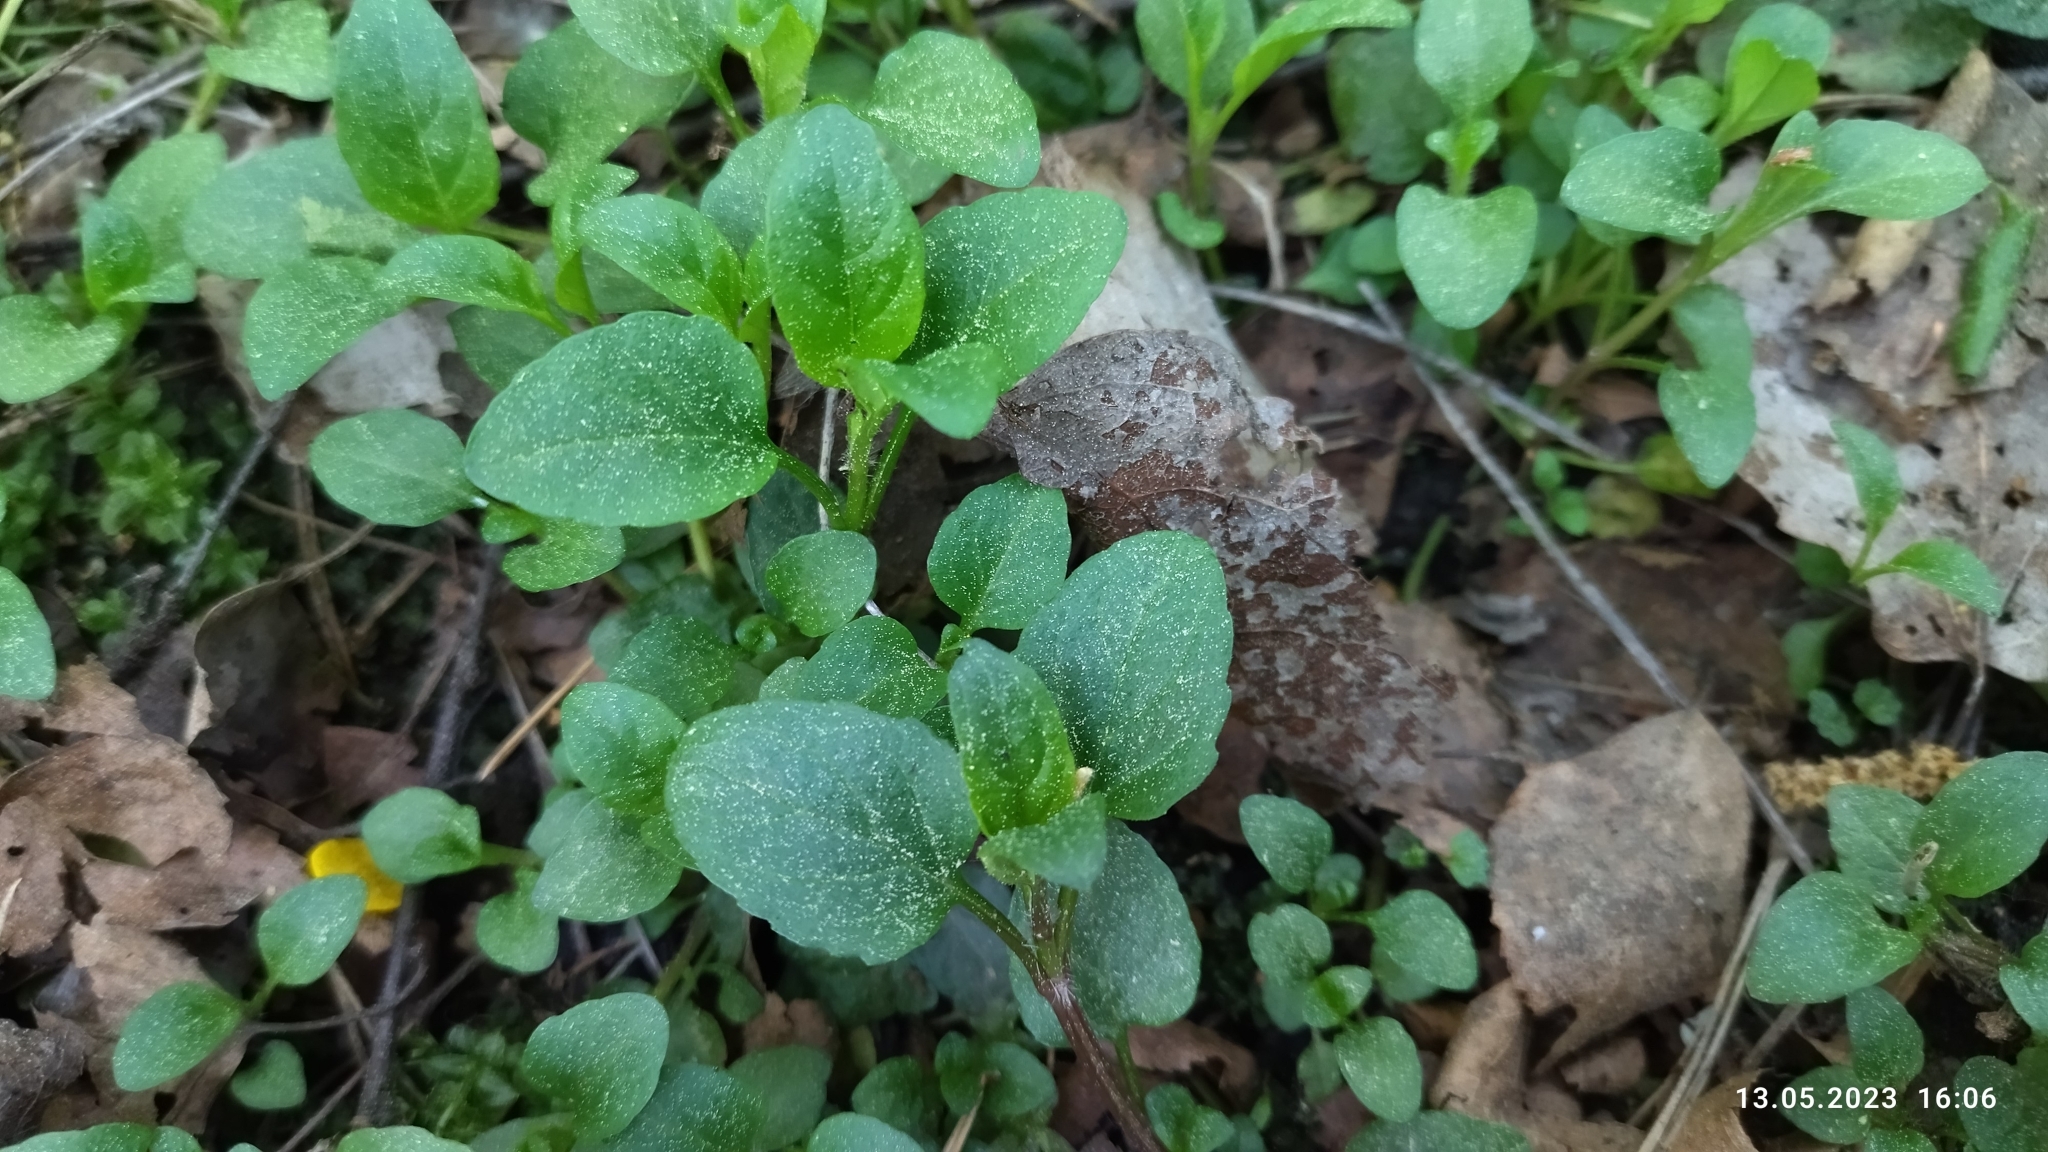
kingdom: Plantae
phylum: Tracheophyta
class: Magnoliopsida
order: Lamiales
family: Lamiaceae
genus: Prunella
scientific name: Prunella vulgaris
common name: Heal-all
